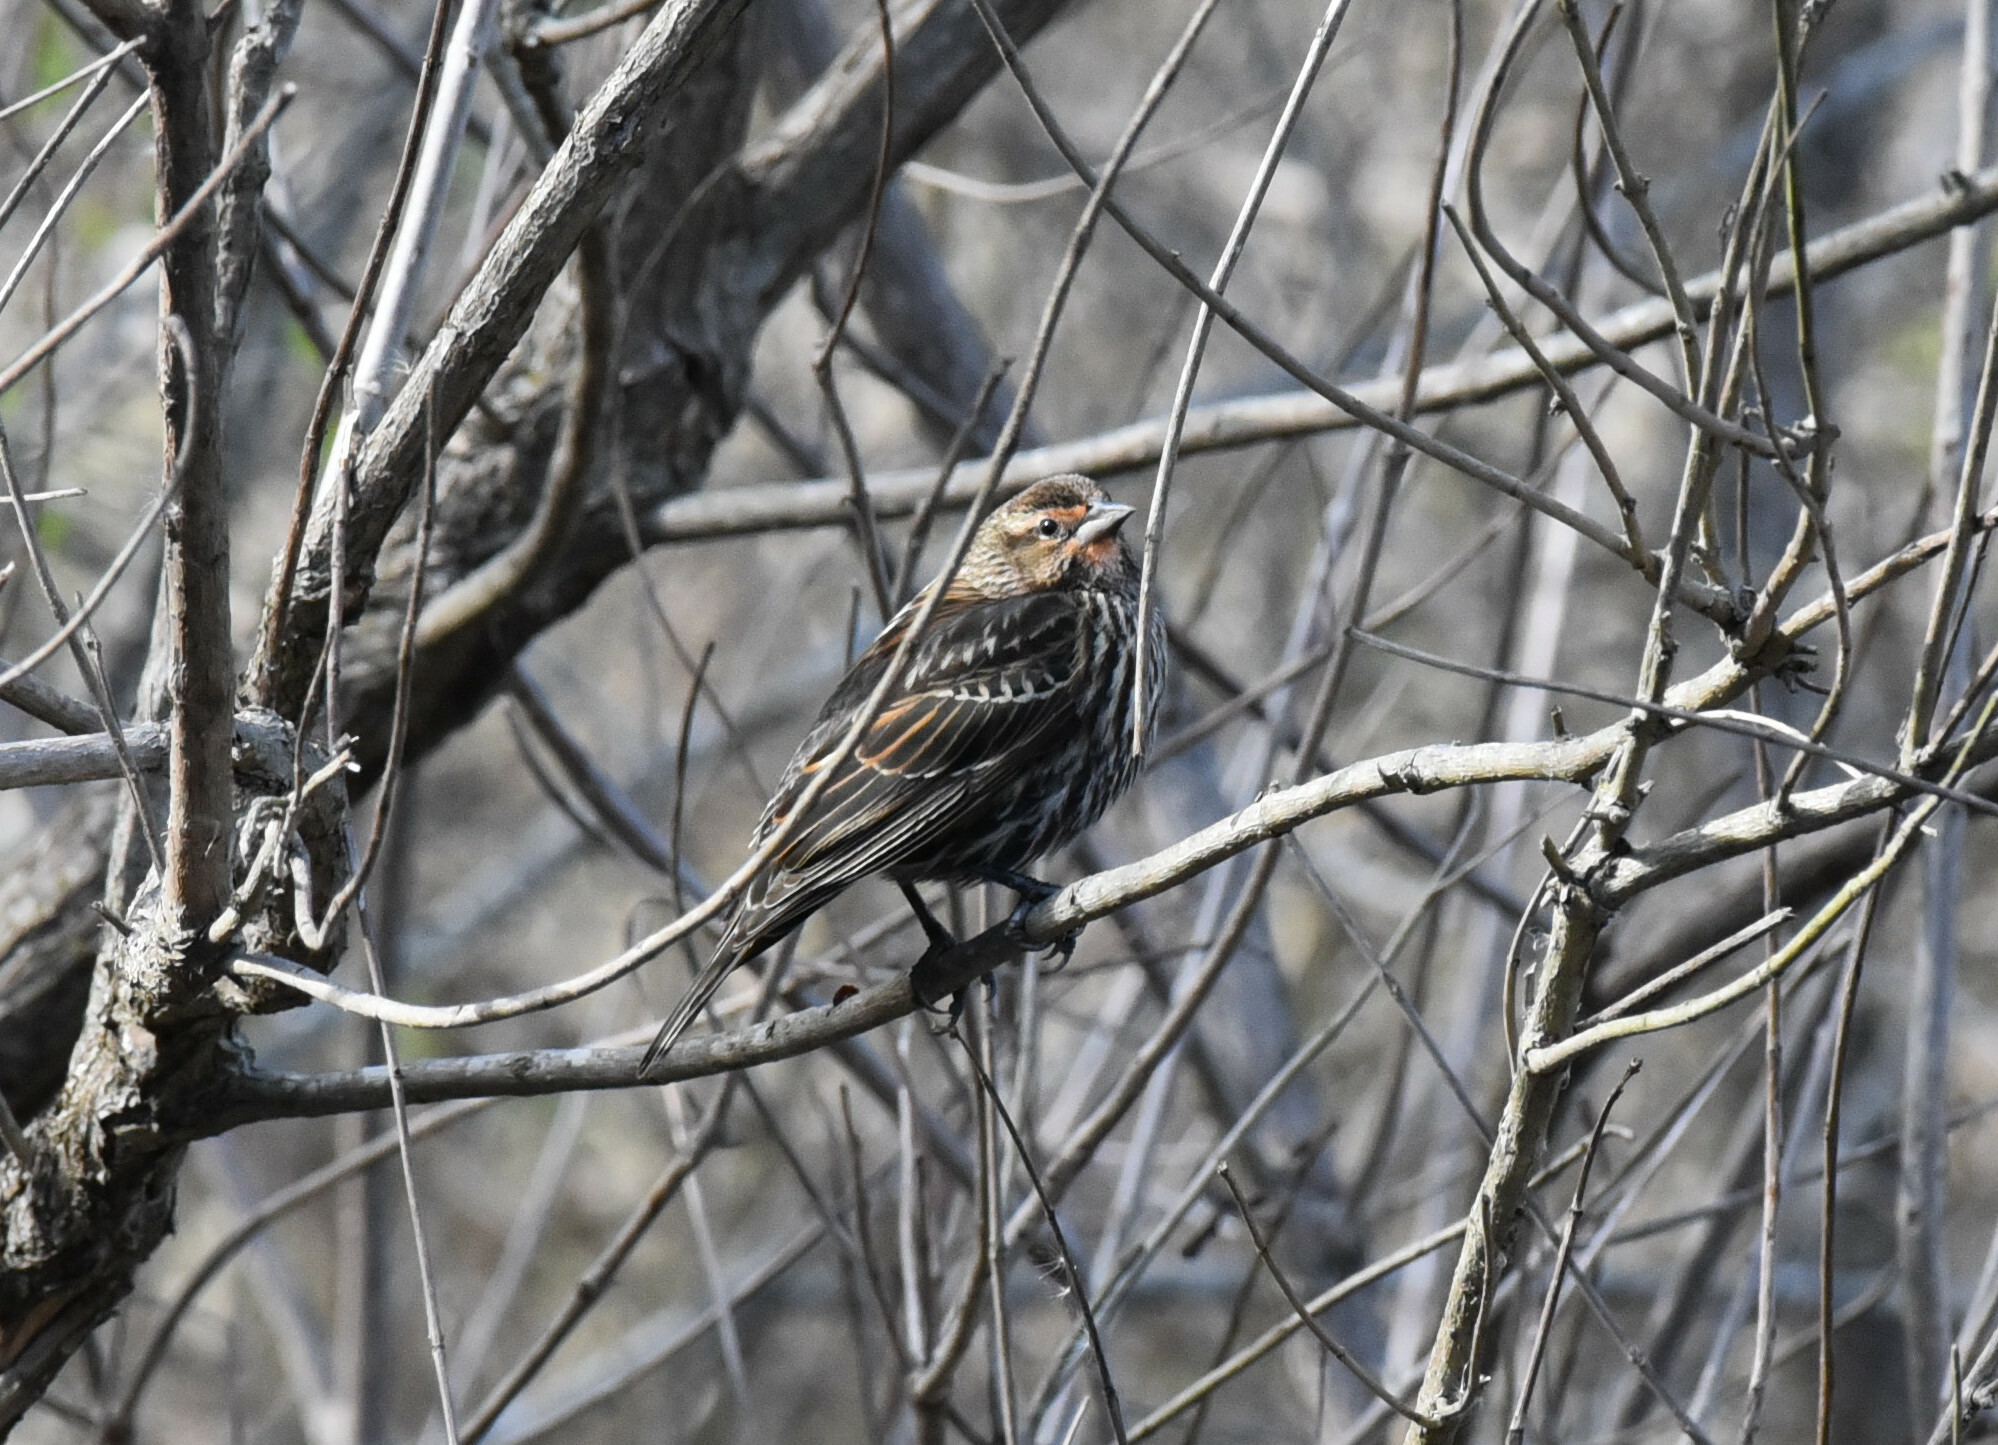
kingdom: Animalia
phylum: Chordata
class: Aves
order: Passeriformes
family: Icteridae
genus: Agelaius
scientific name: Agelaius phoeniceus
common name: Red-winged blackbird
